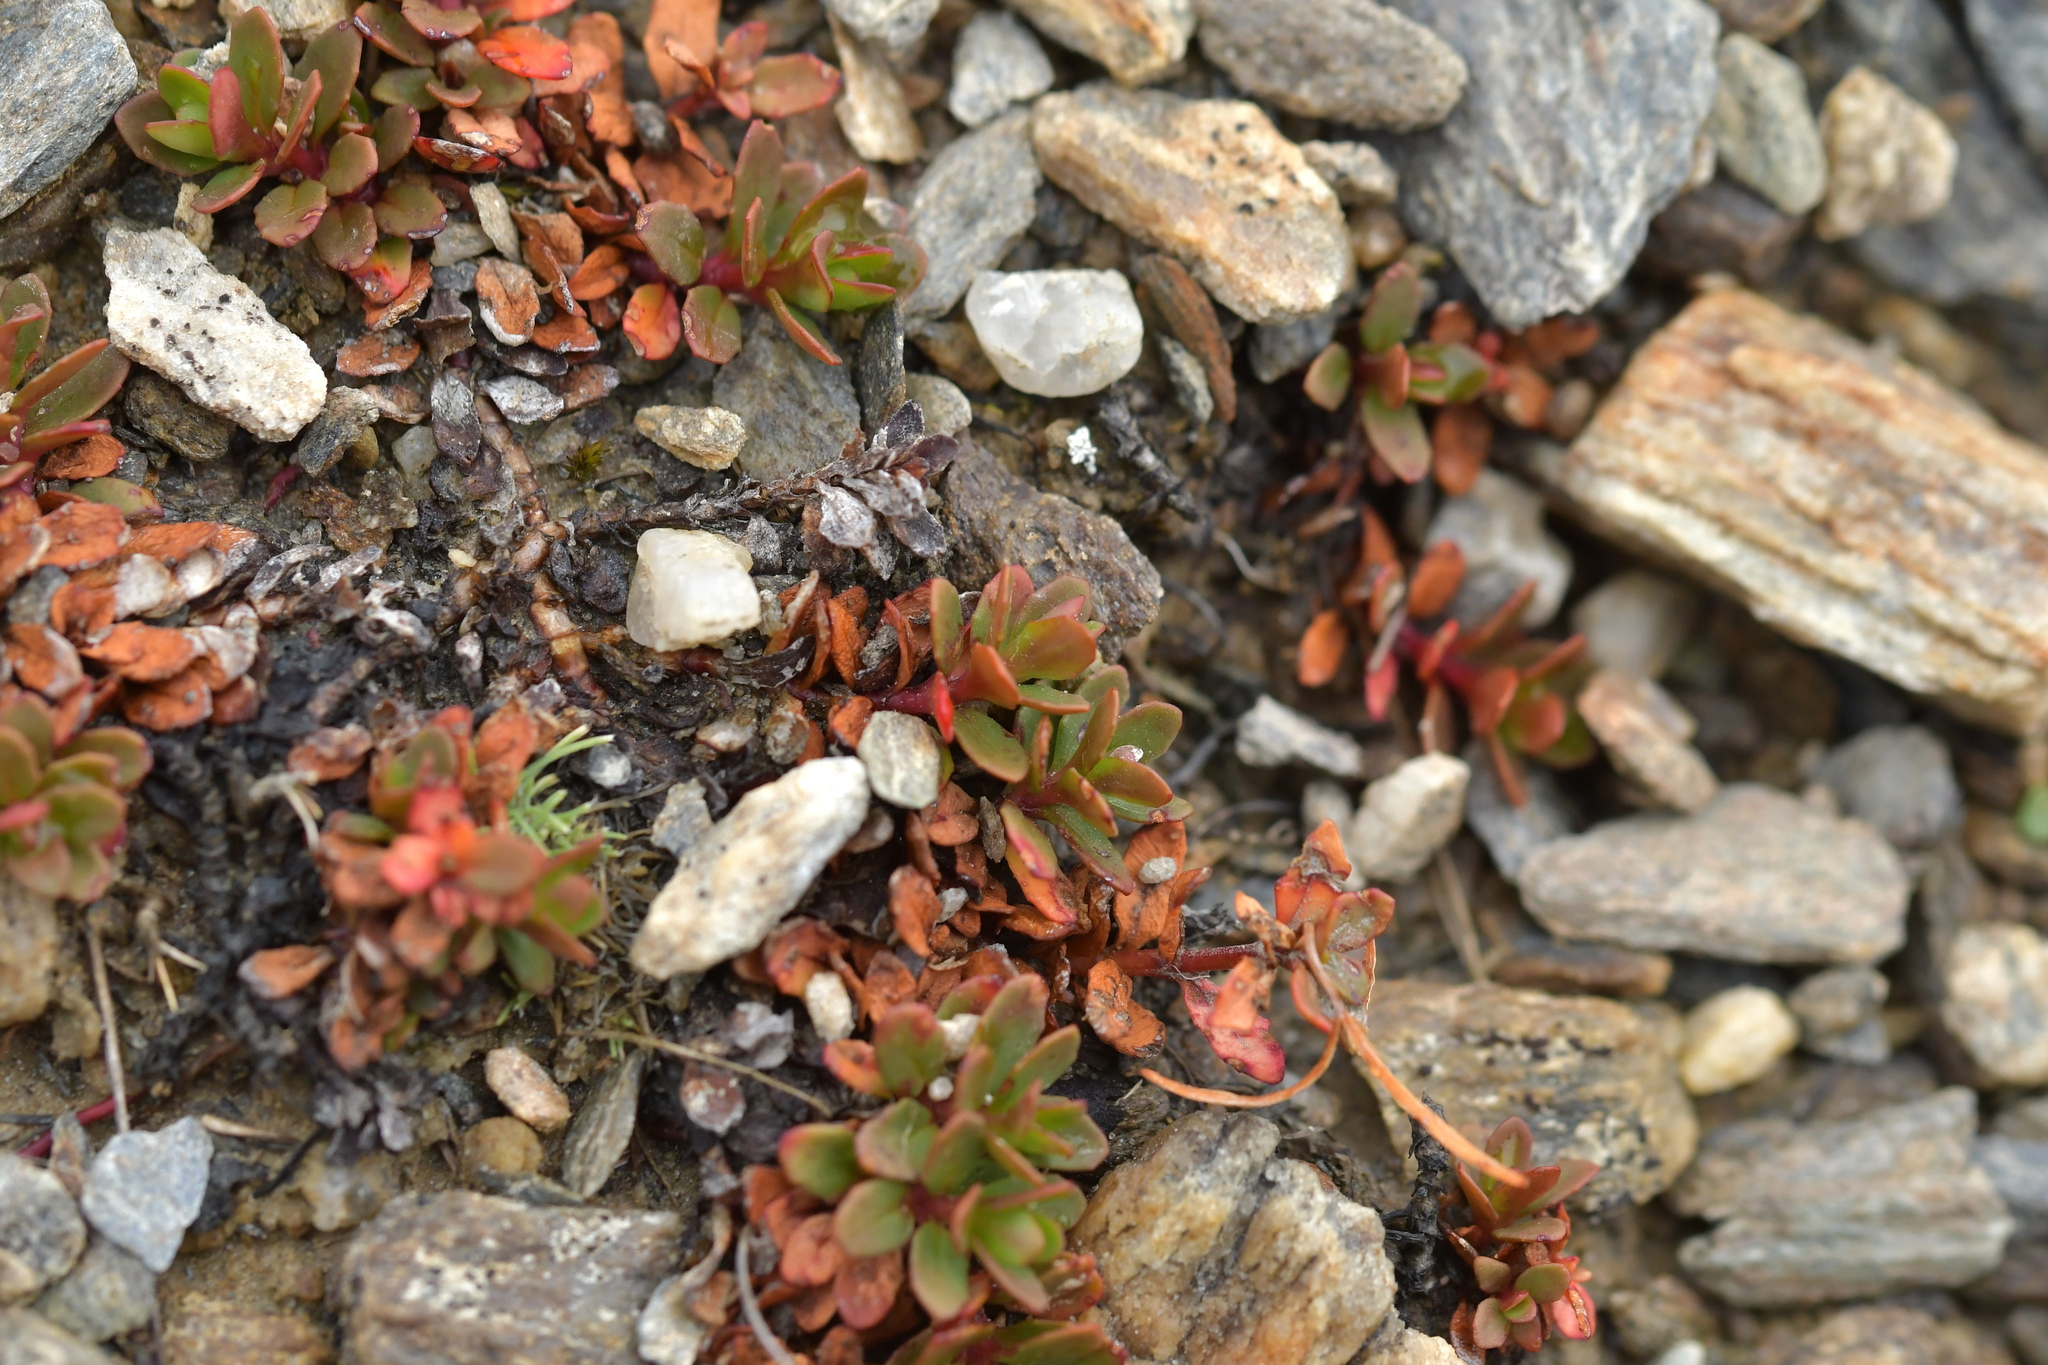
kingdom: Plantae
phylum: Tracheophyta
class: Magnoliopsida
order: Myrtales
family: Onagraceae
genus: Epilobium
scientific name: Epilobium tasmanicum
